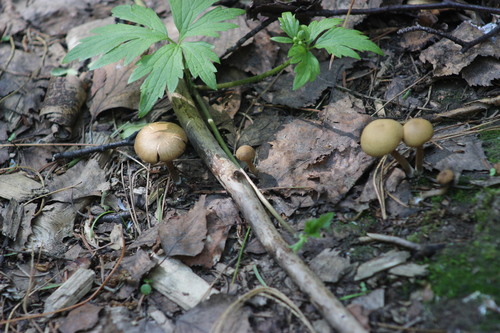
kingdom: Fungi
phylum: Basidiomycota
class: Agaricomycetes
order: Agaricales
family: Psathyrellaceae
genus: Psathyrella
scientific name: Psathyrella
